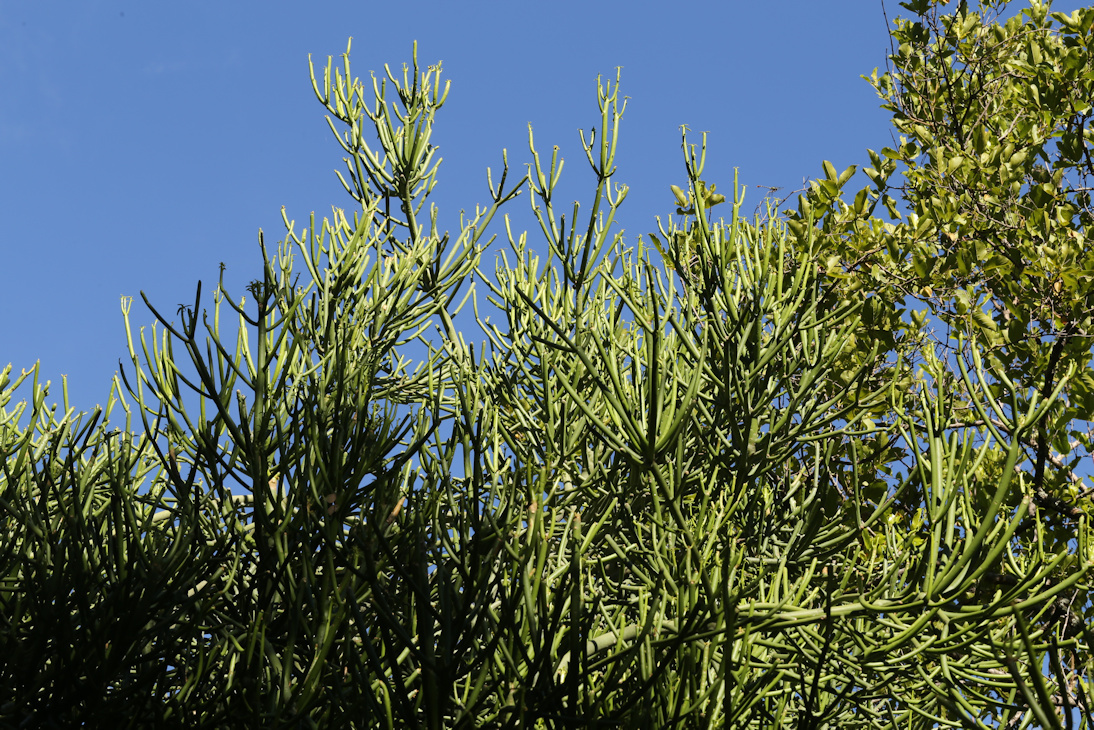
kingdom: Plantae
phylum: Tracheophyta
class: Magnoliopsida
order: Malpighiales
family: Euphorbiaceae
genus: Euphorbia
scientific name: Euphorbia tirucalli
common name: Indiantree spurge
